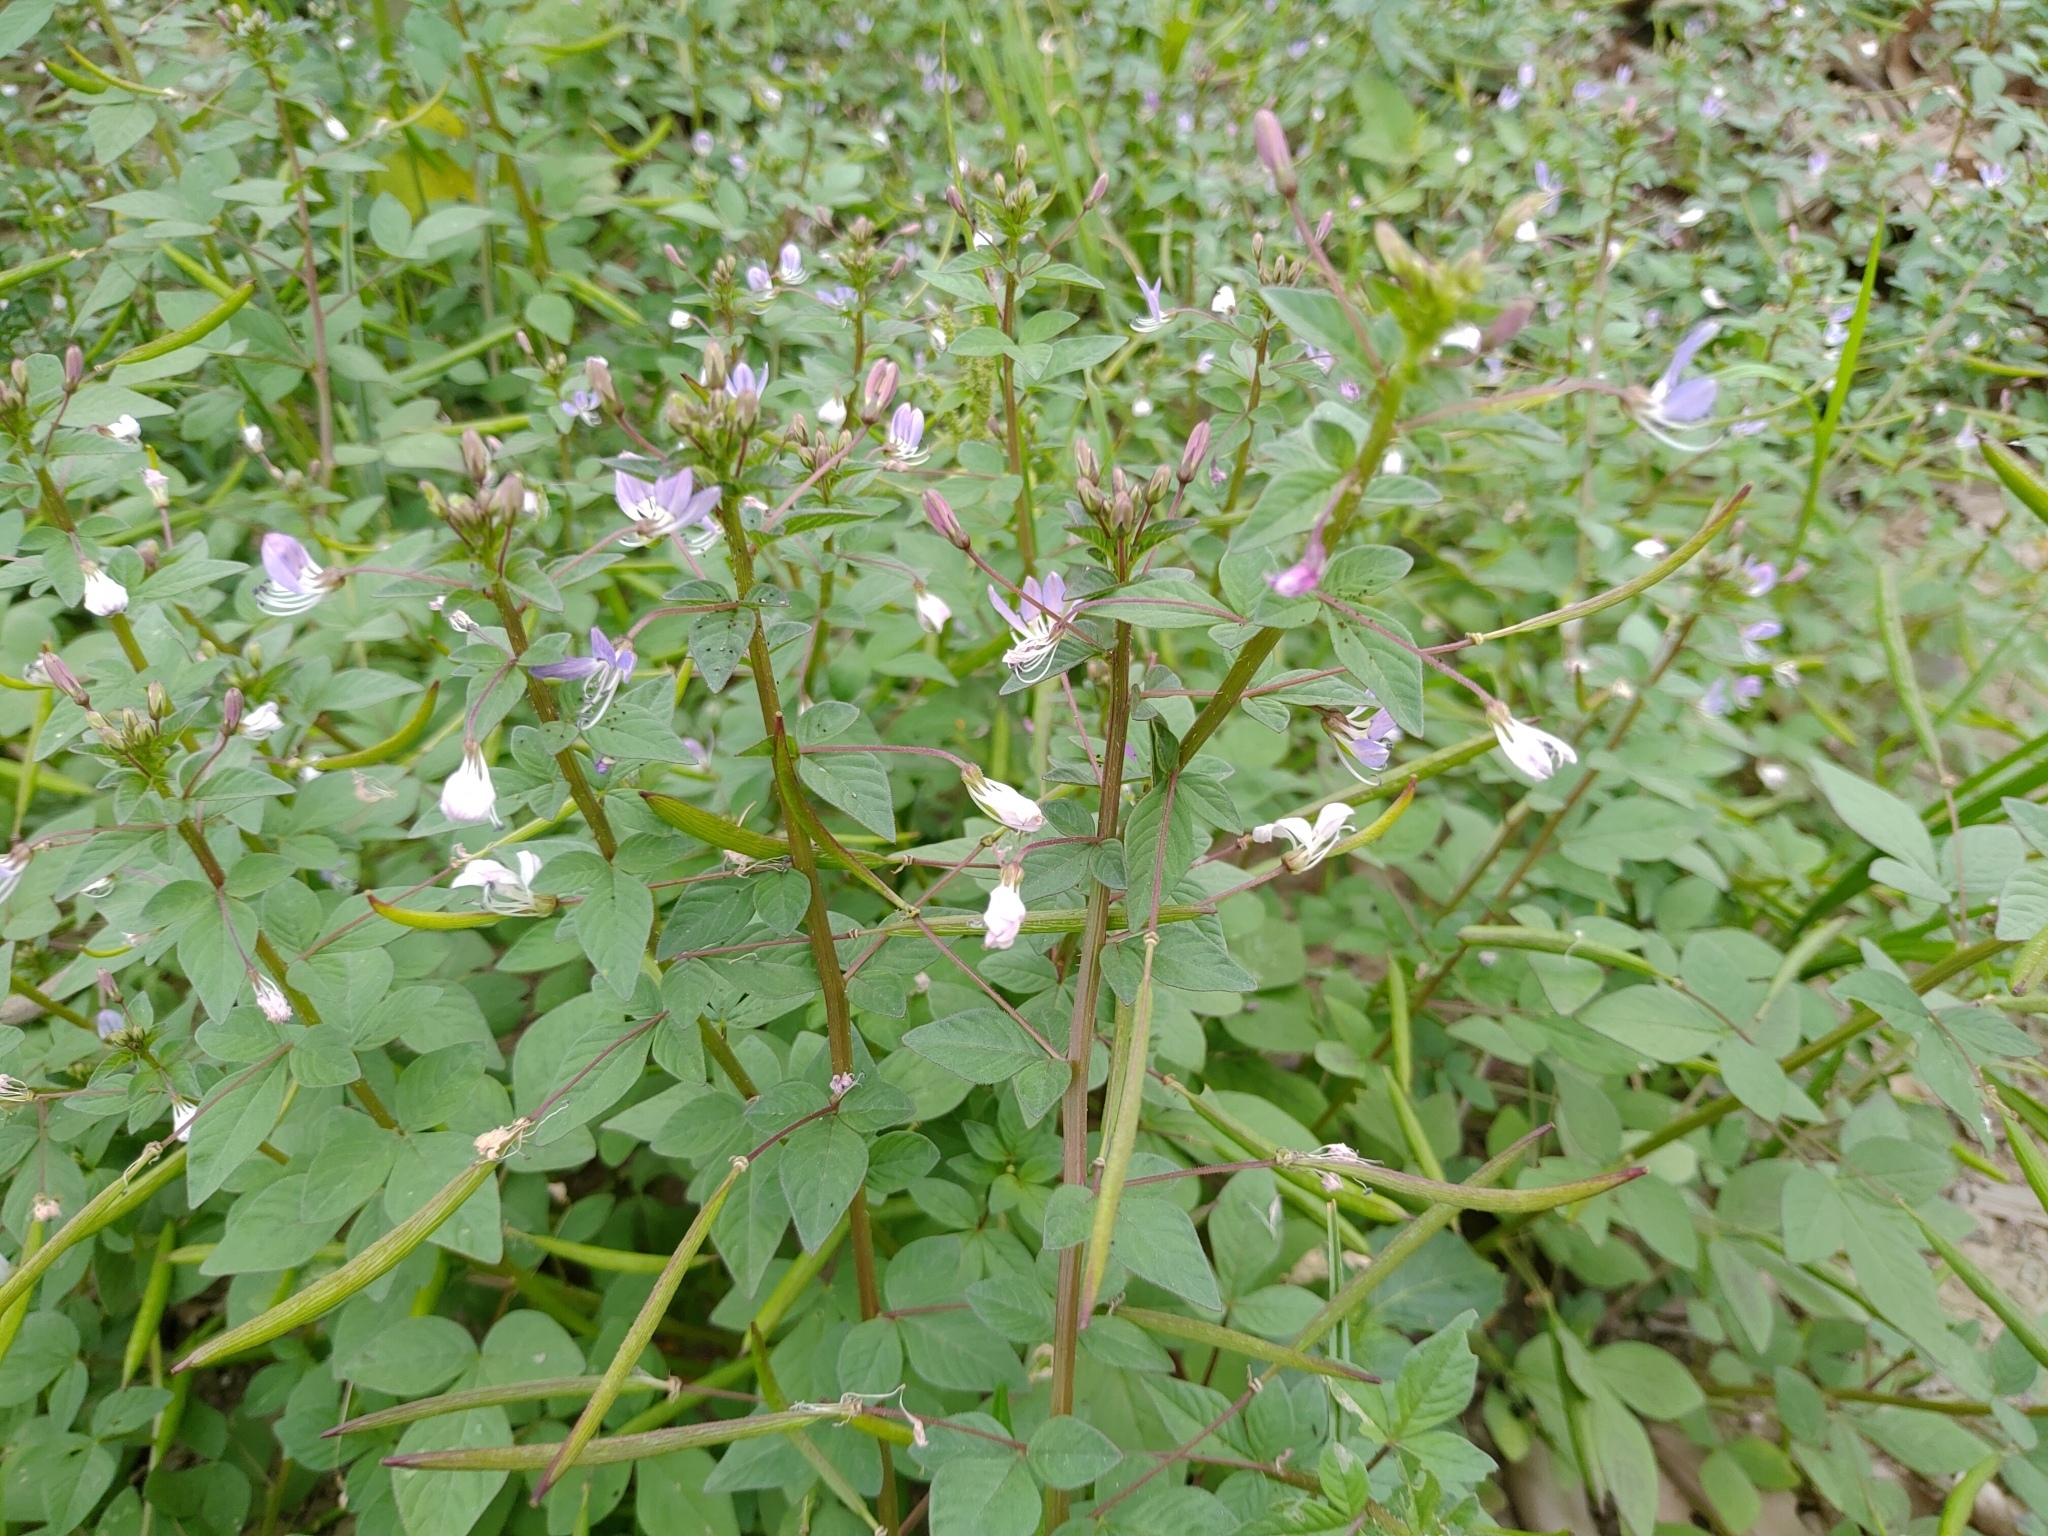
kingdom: Plantae
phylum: Tracheophyta
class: Magnoliopsida
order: Brassicales
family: Cleomaceae
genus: Sieruela
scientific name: Sieruela rutidosperma
